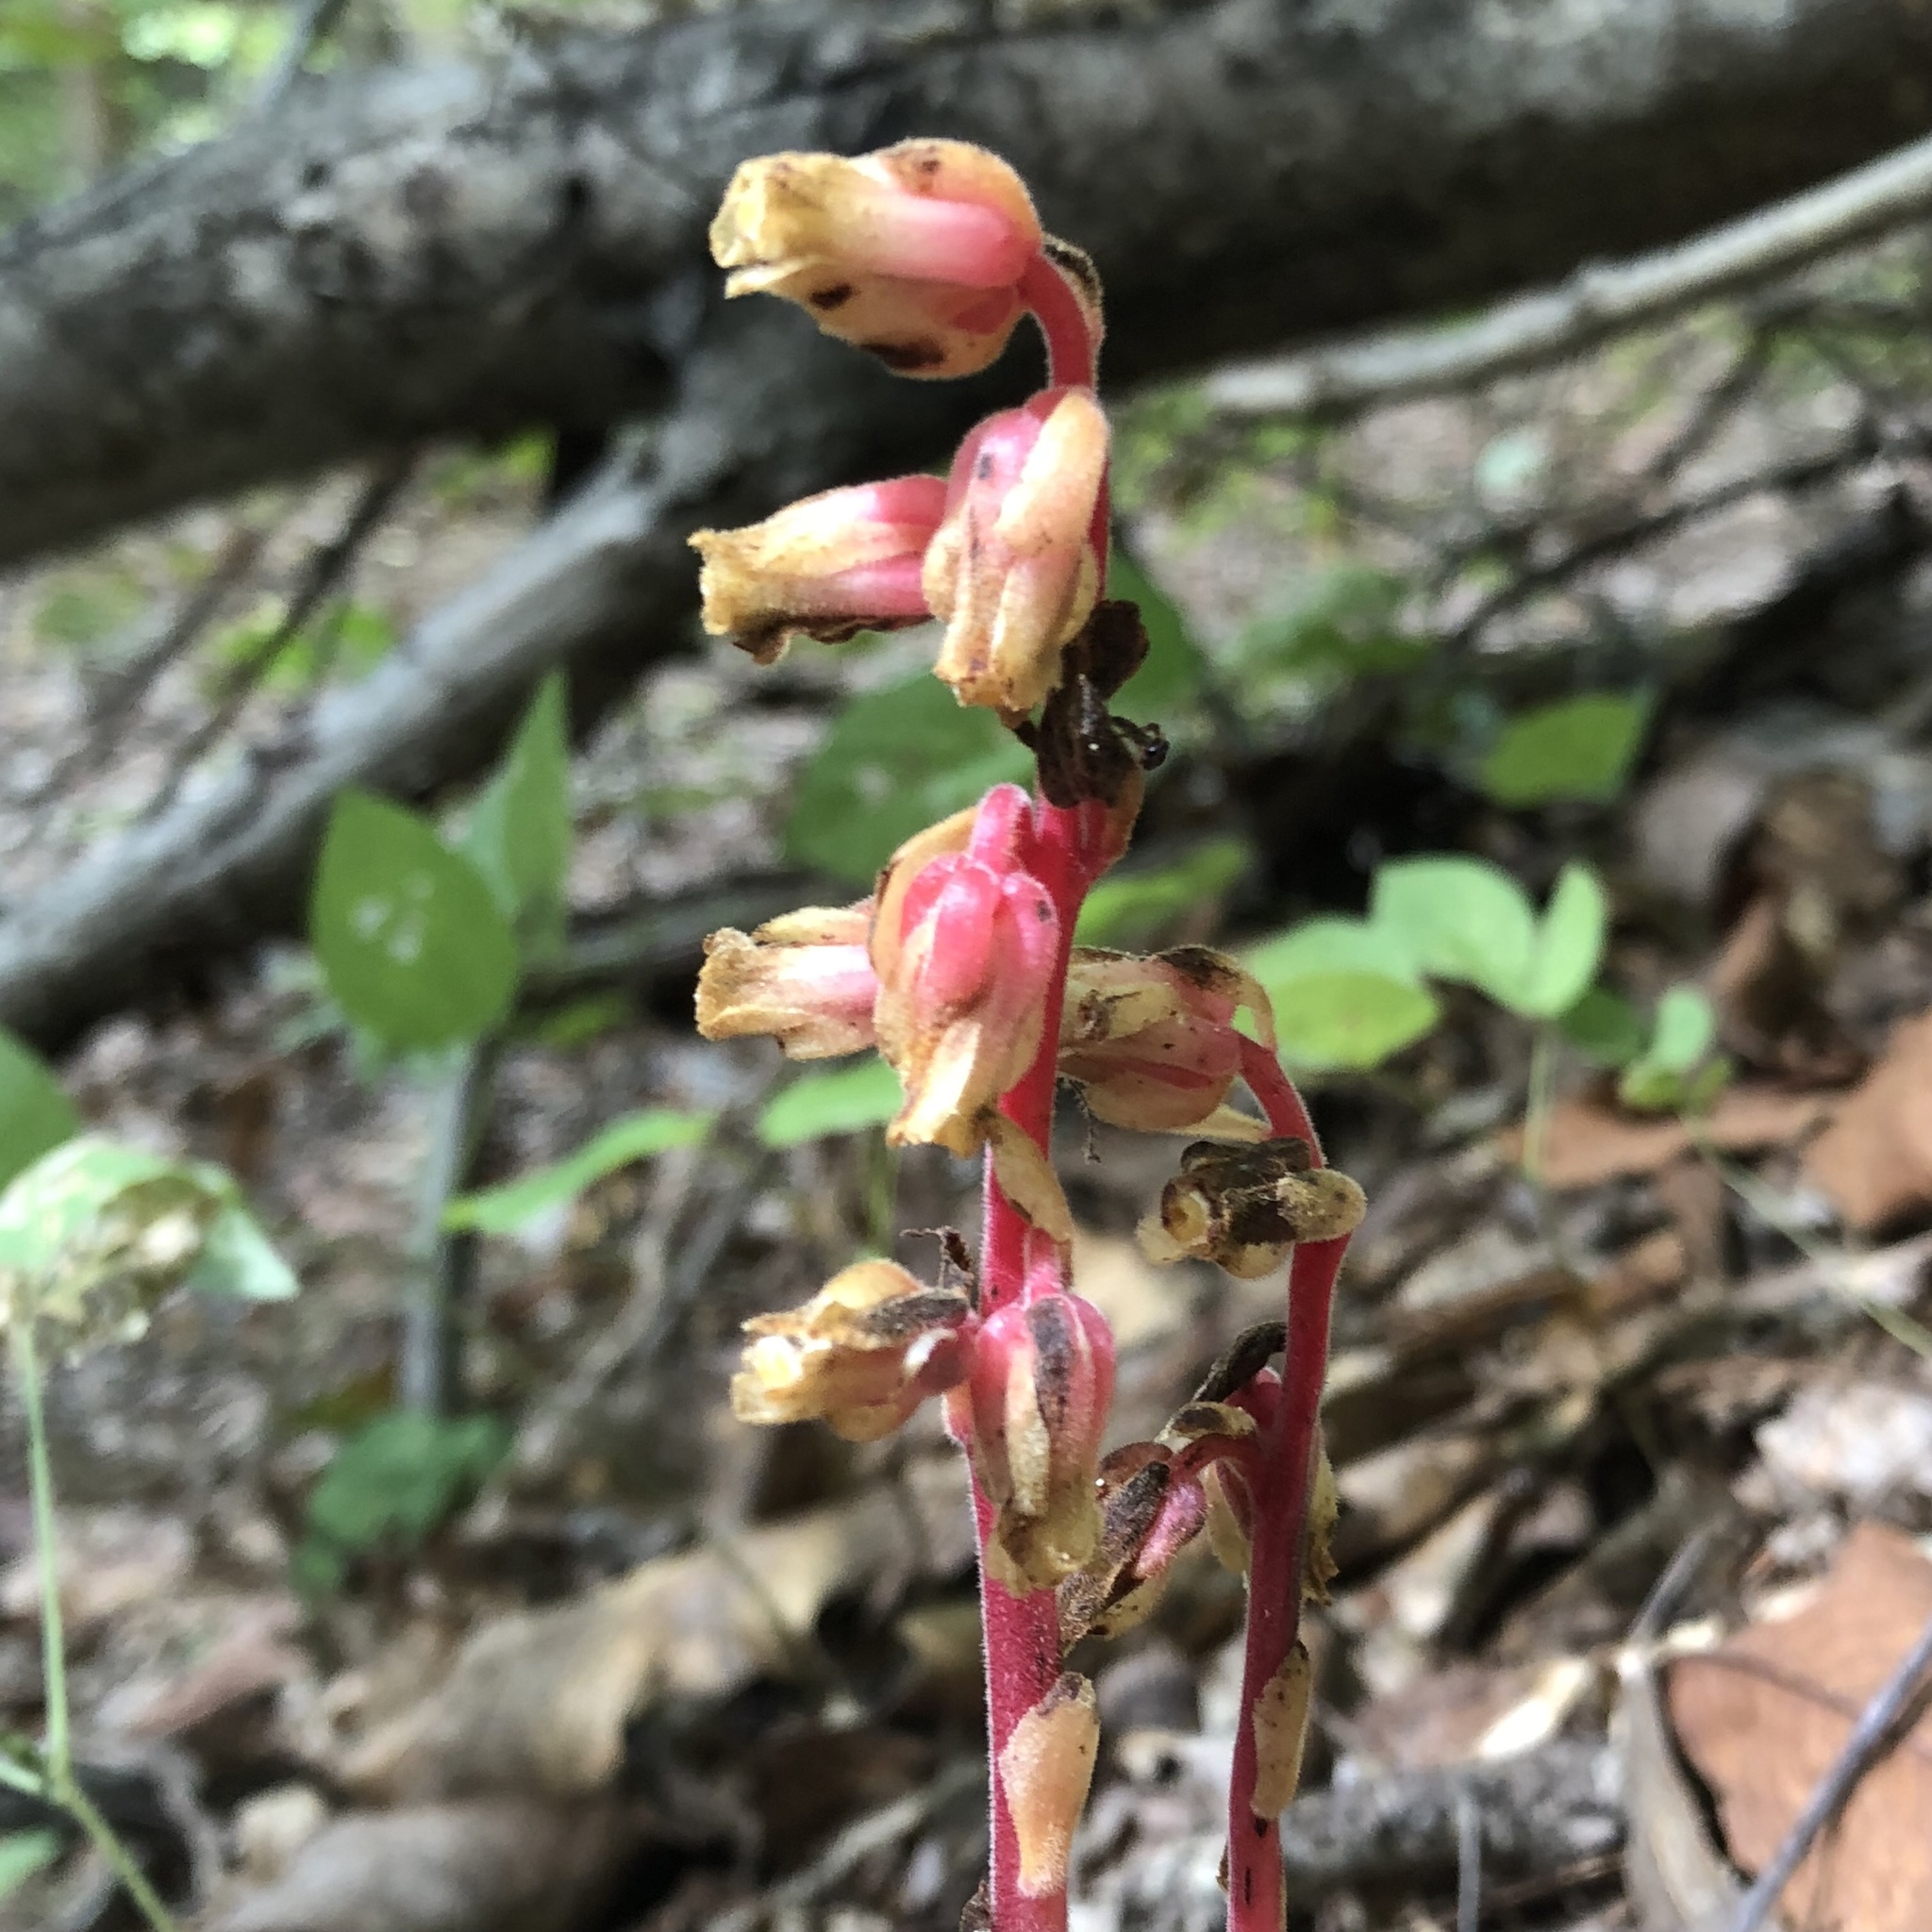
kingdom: Plantae
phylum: Tracheophyta
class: Magnoliopsida
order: Ericales
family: Ericaceae
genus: Hypopitys
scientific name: Hypopitys monotropa
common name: Yellow bird's-nest
